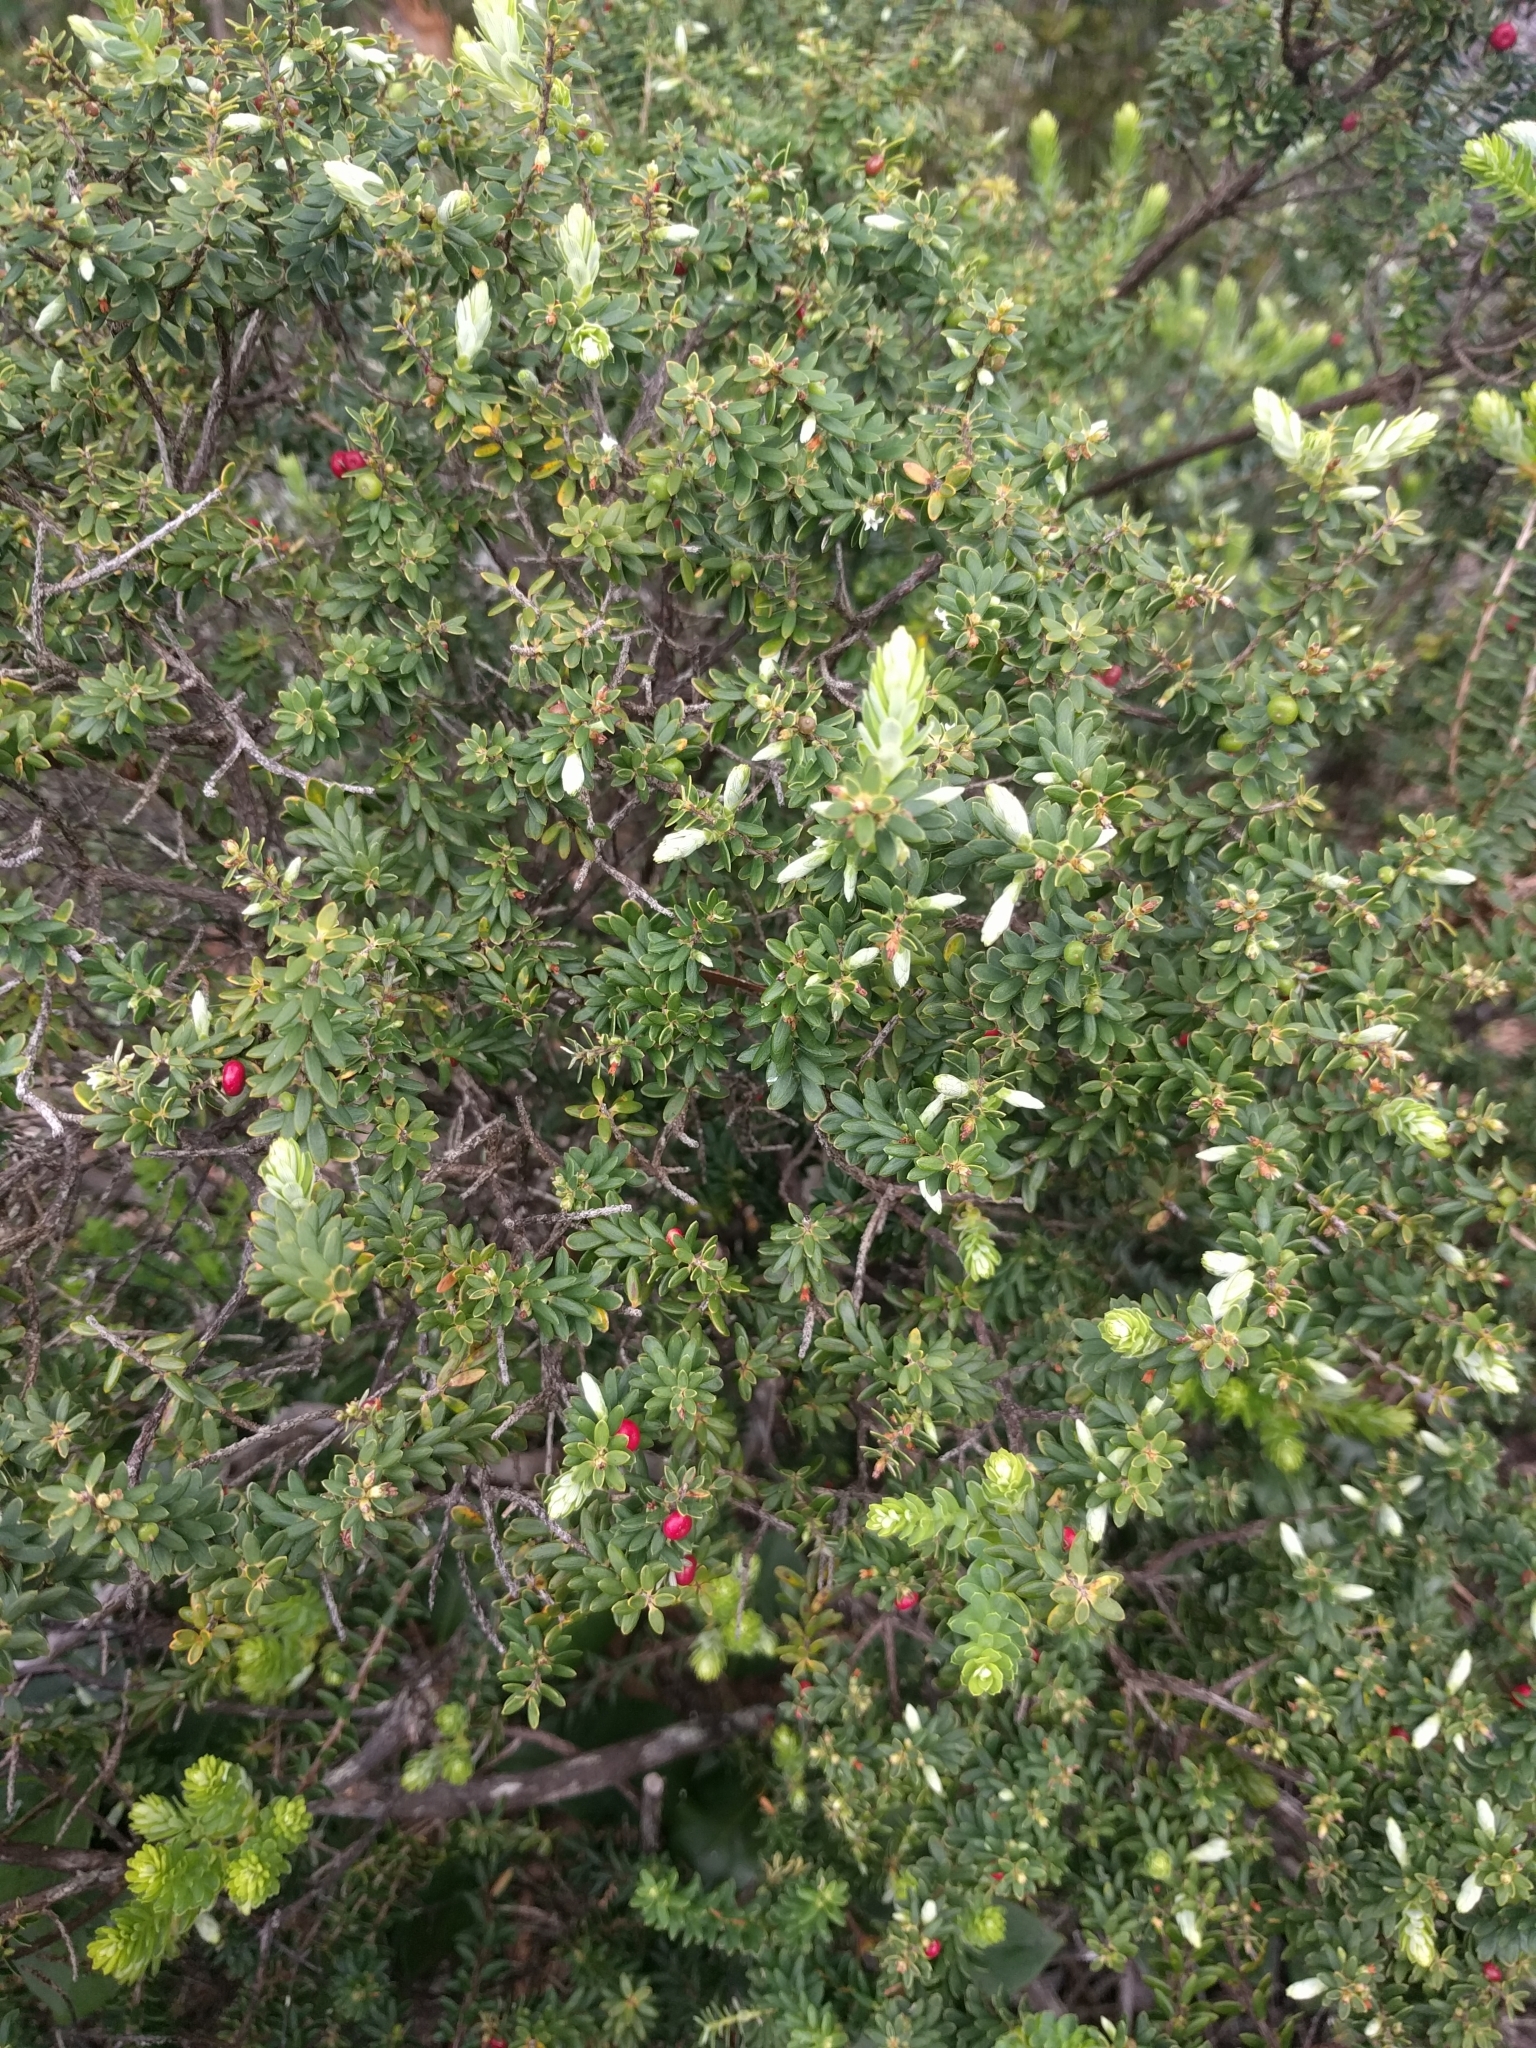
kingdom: Plantae
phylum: Tracheophyta
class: Magnoliopsida
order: Ericales
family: Ericaceae
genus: Leptecophylla
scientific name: Leptecophylla tameiameiae
